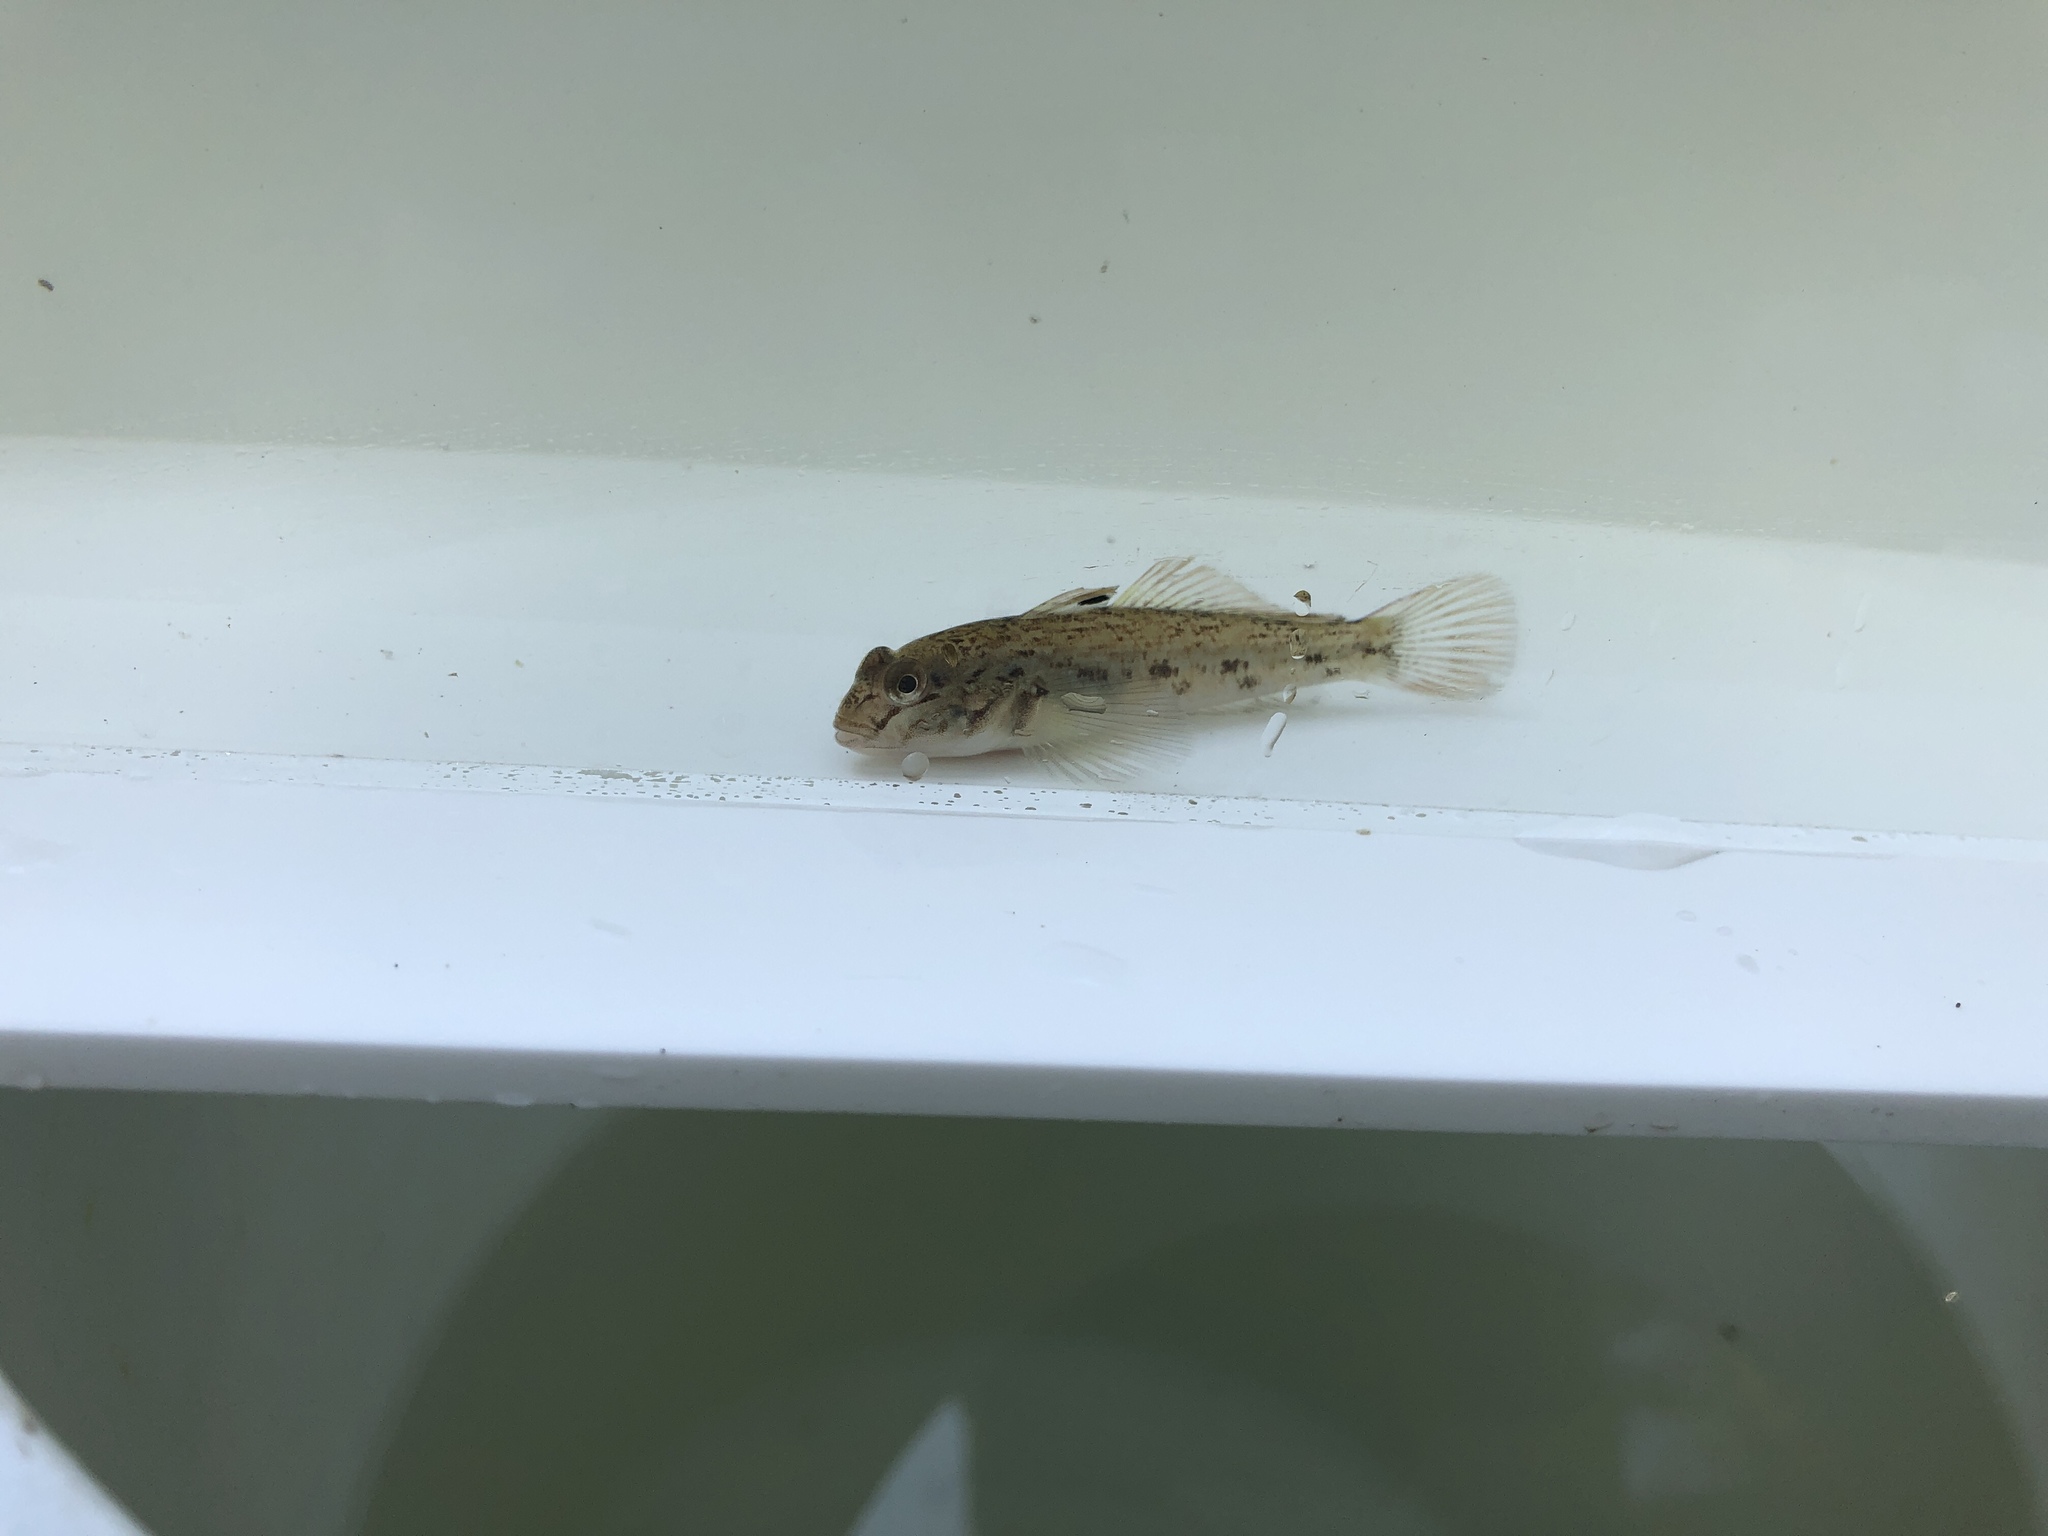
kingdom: Animalia
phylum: Chordata
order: Perciformes
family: Gobiidae
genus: Neogobius
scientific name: Neogobius melanostomus
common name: Round goby
